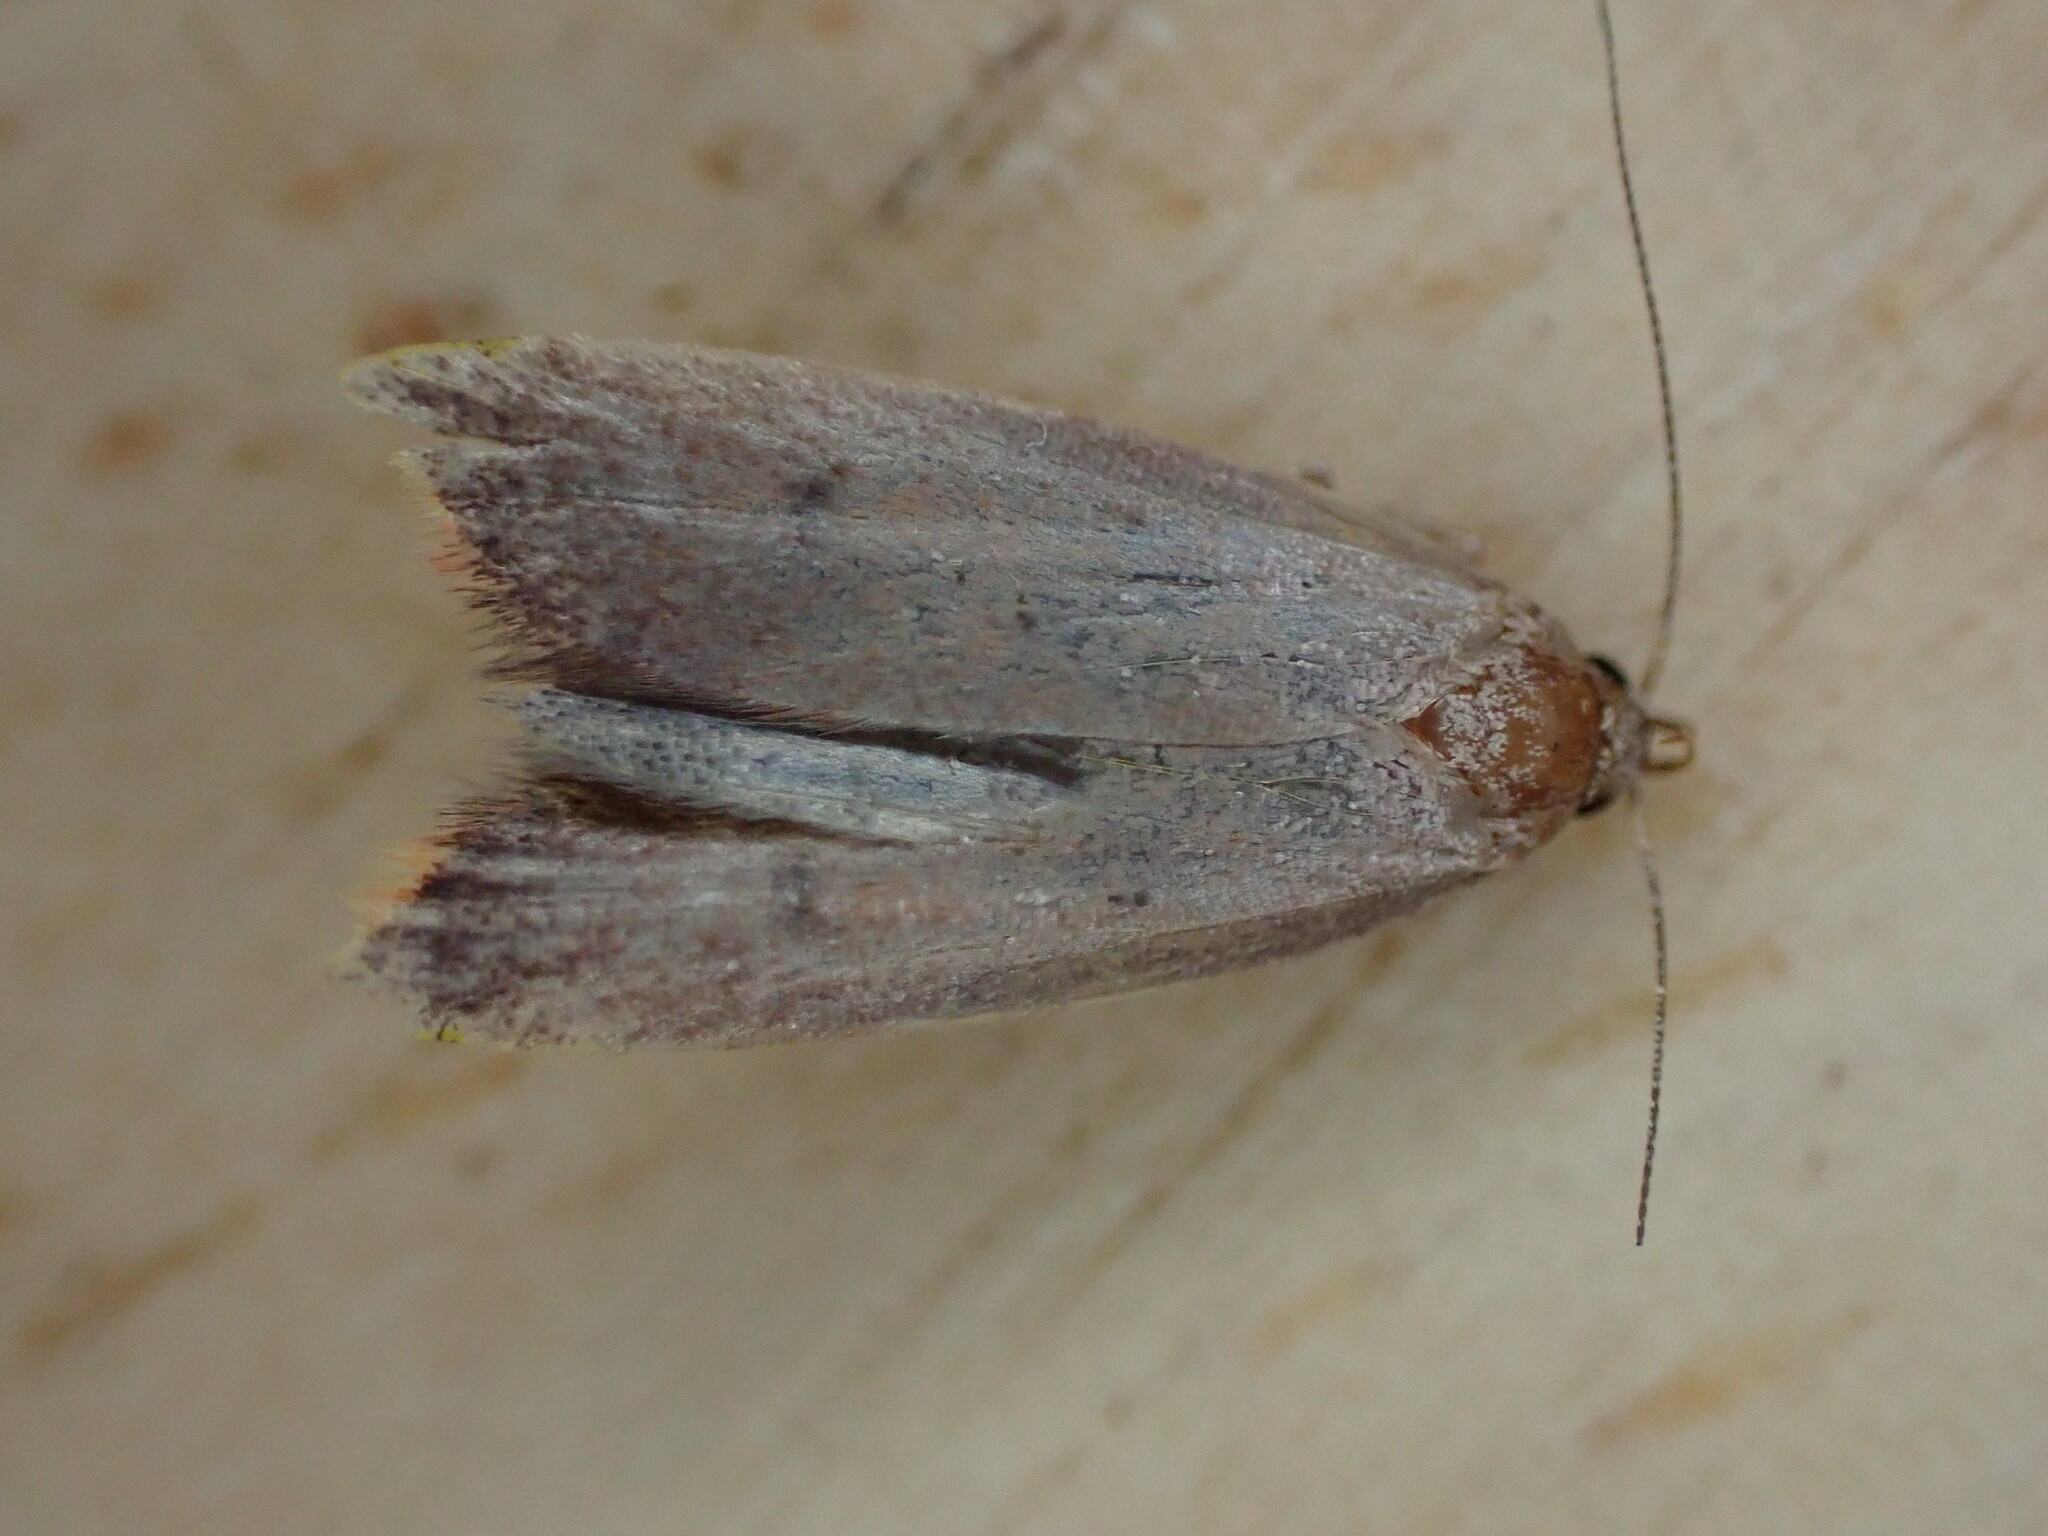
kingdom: Animalia
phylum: Arthropoda
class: Insecta
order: Lepidoptera
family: Oecophoridae
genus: Tachystola
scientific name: Tachystola acroxantha
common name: Ruddy streak
